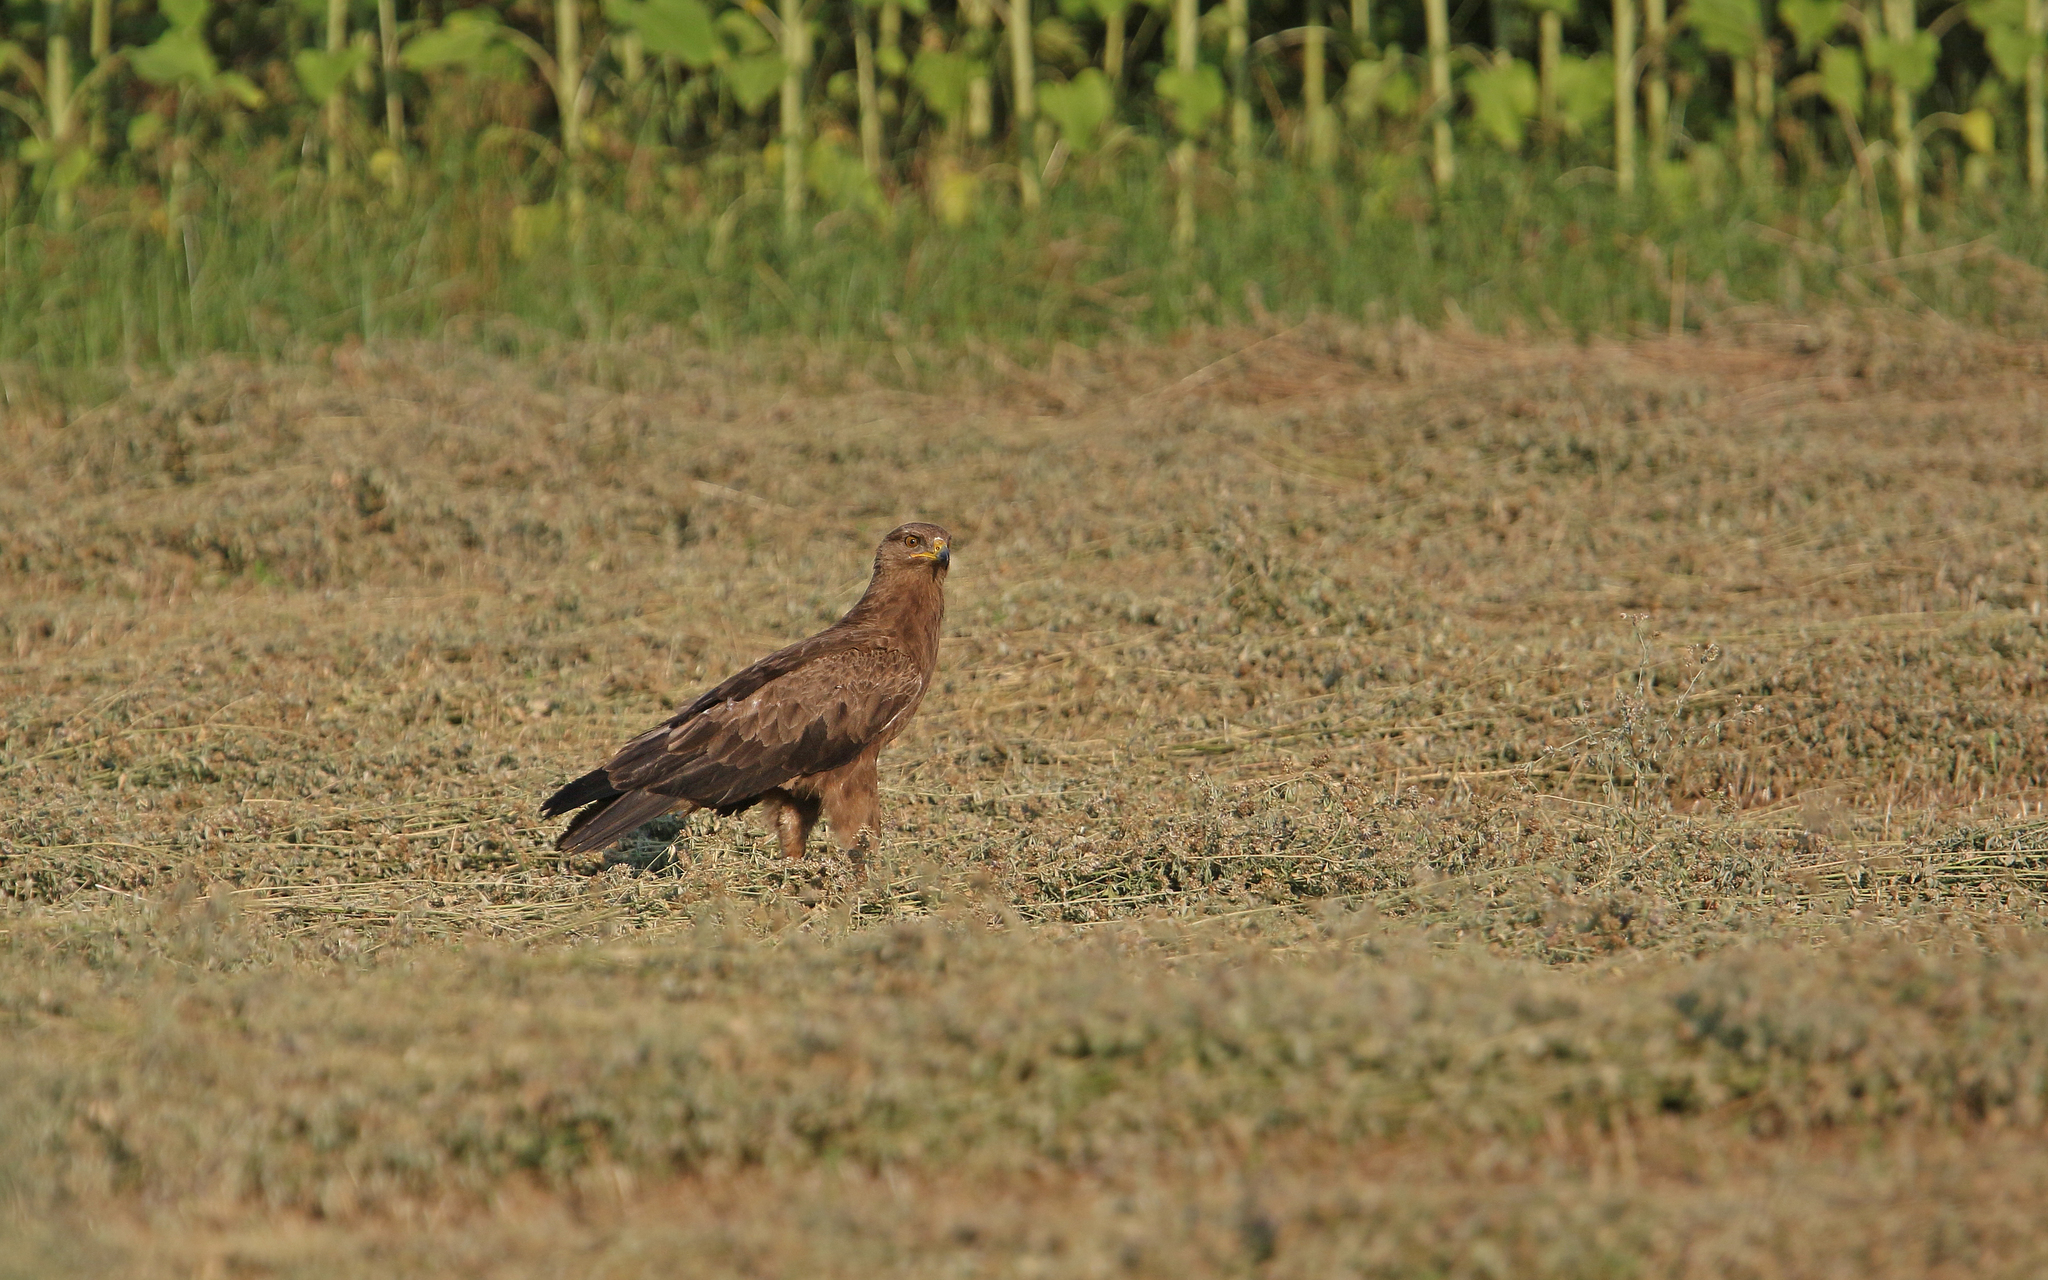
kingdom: Animalia
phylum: Chordata
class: Aves
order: Accipitriformes
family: Accipitridae
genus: Aquila
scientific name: Aquila pomarina
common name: Lesser spotted eagle
